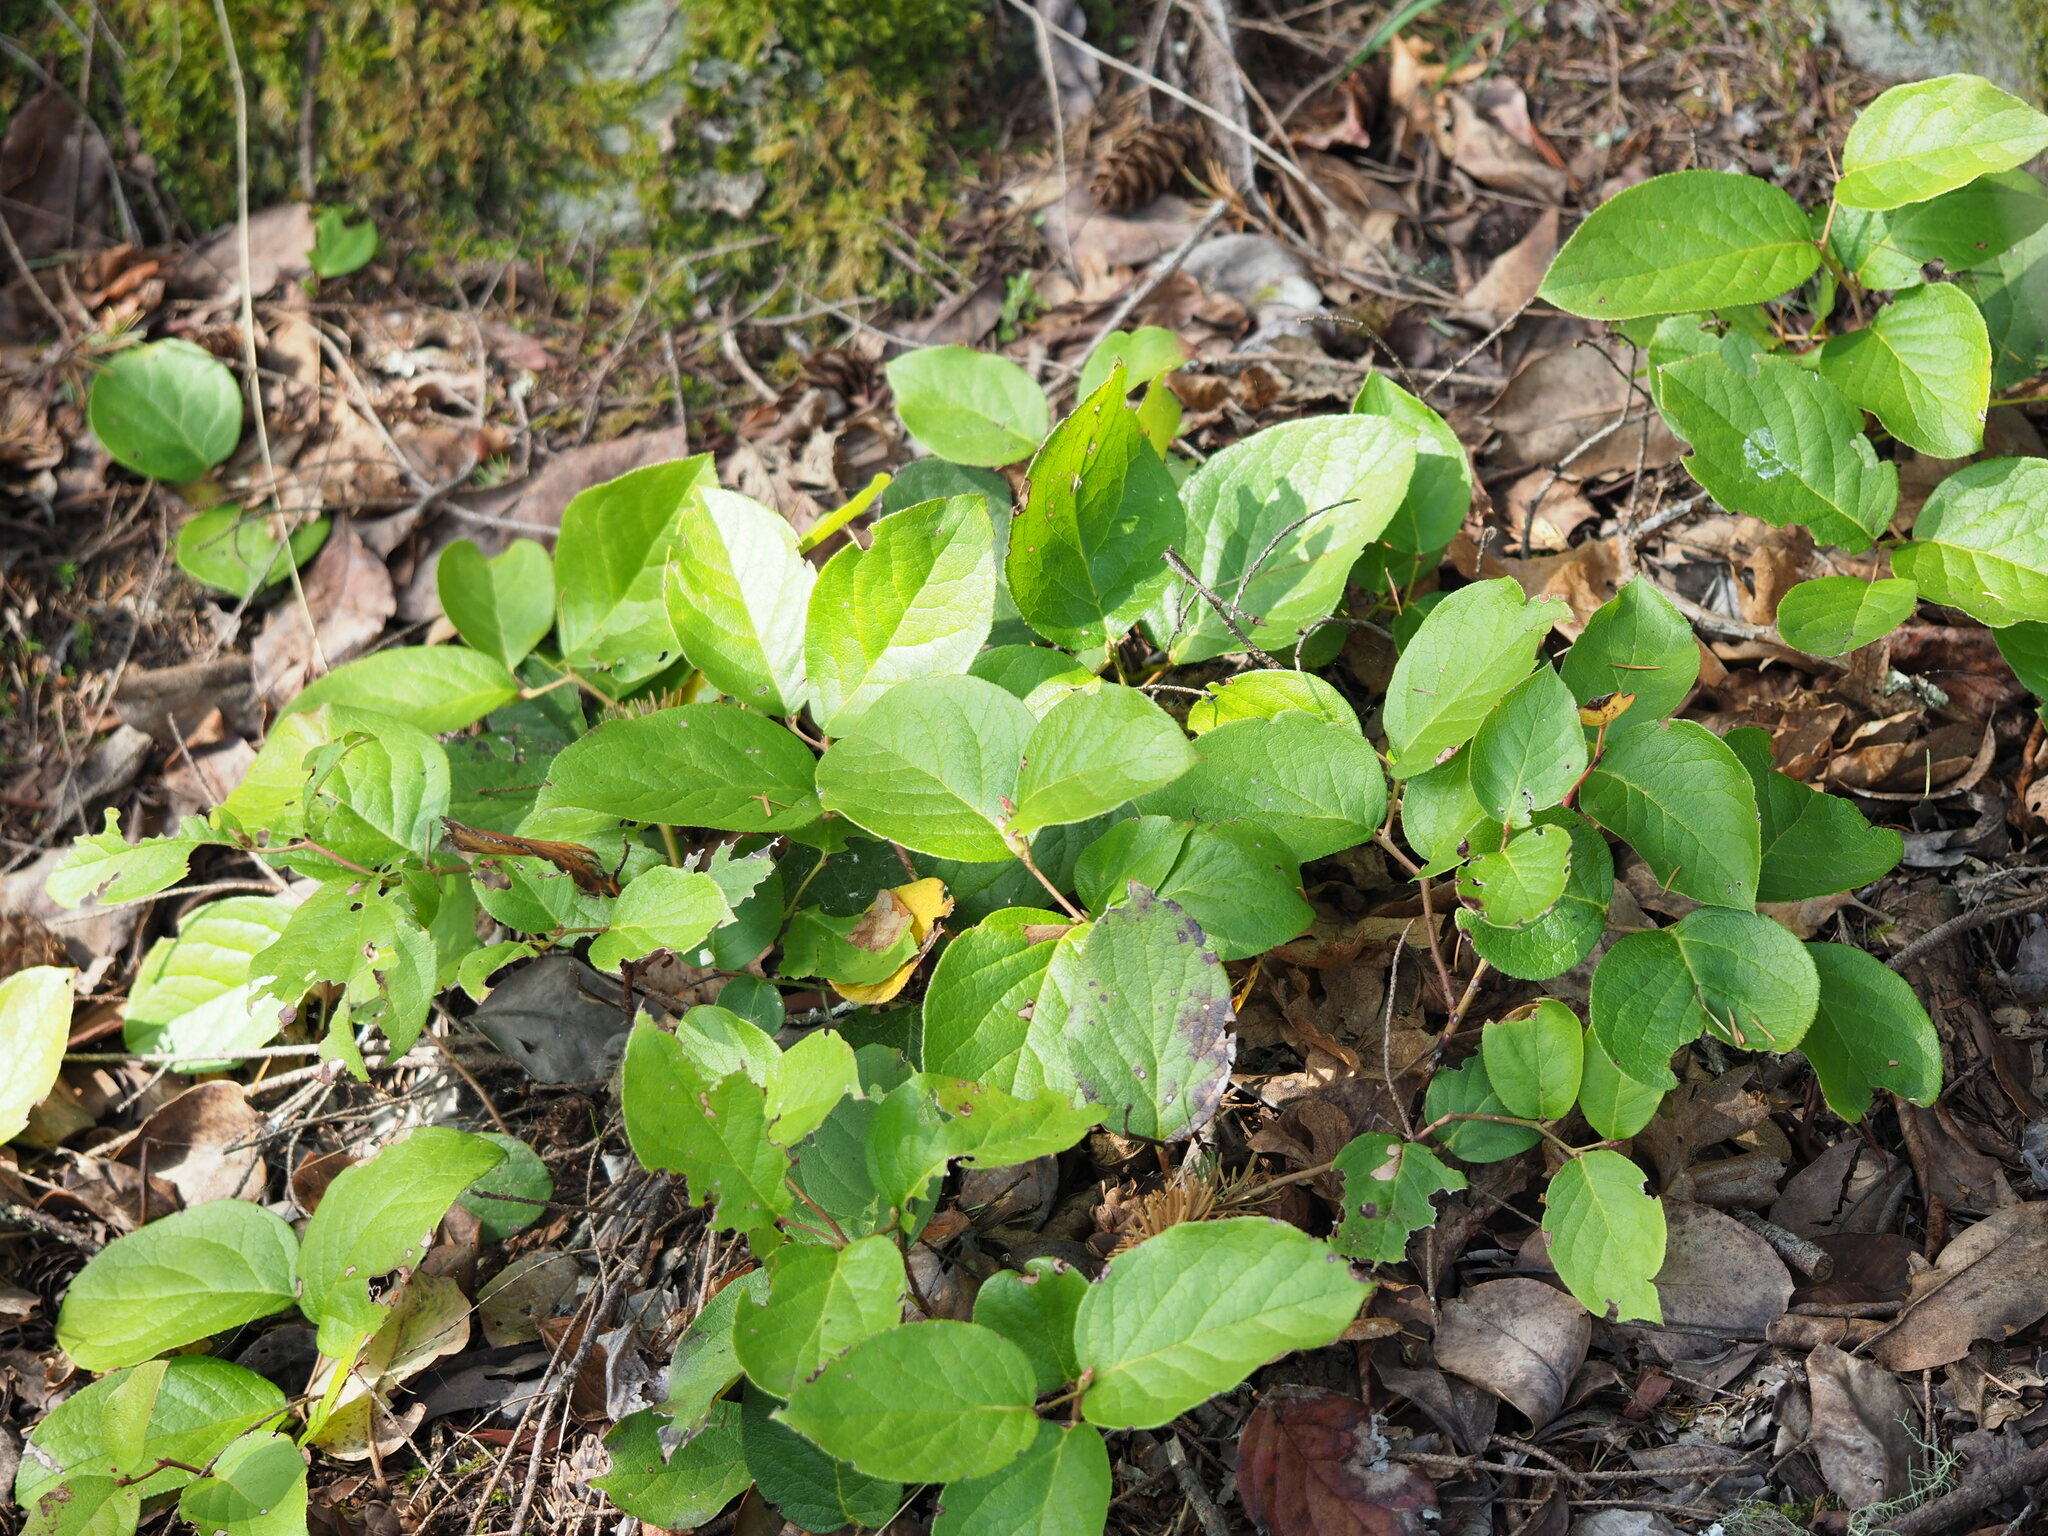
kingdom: Plantae
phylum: Tracheophyta
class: Magnoliopsida
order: Ericales
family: Ericaceae
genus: Gaultheria
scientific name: Gaultheria shallon
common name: Shallon
